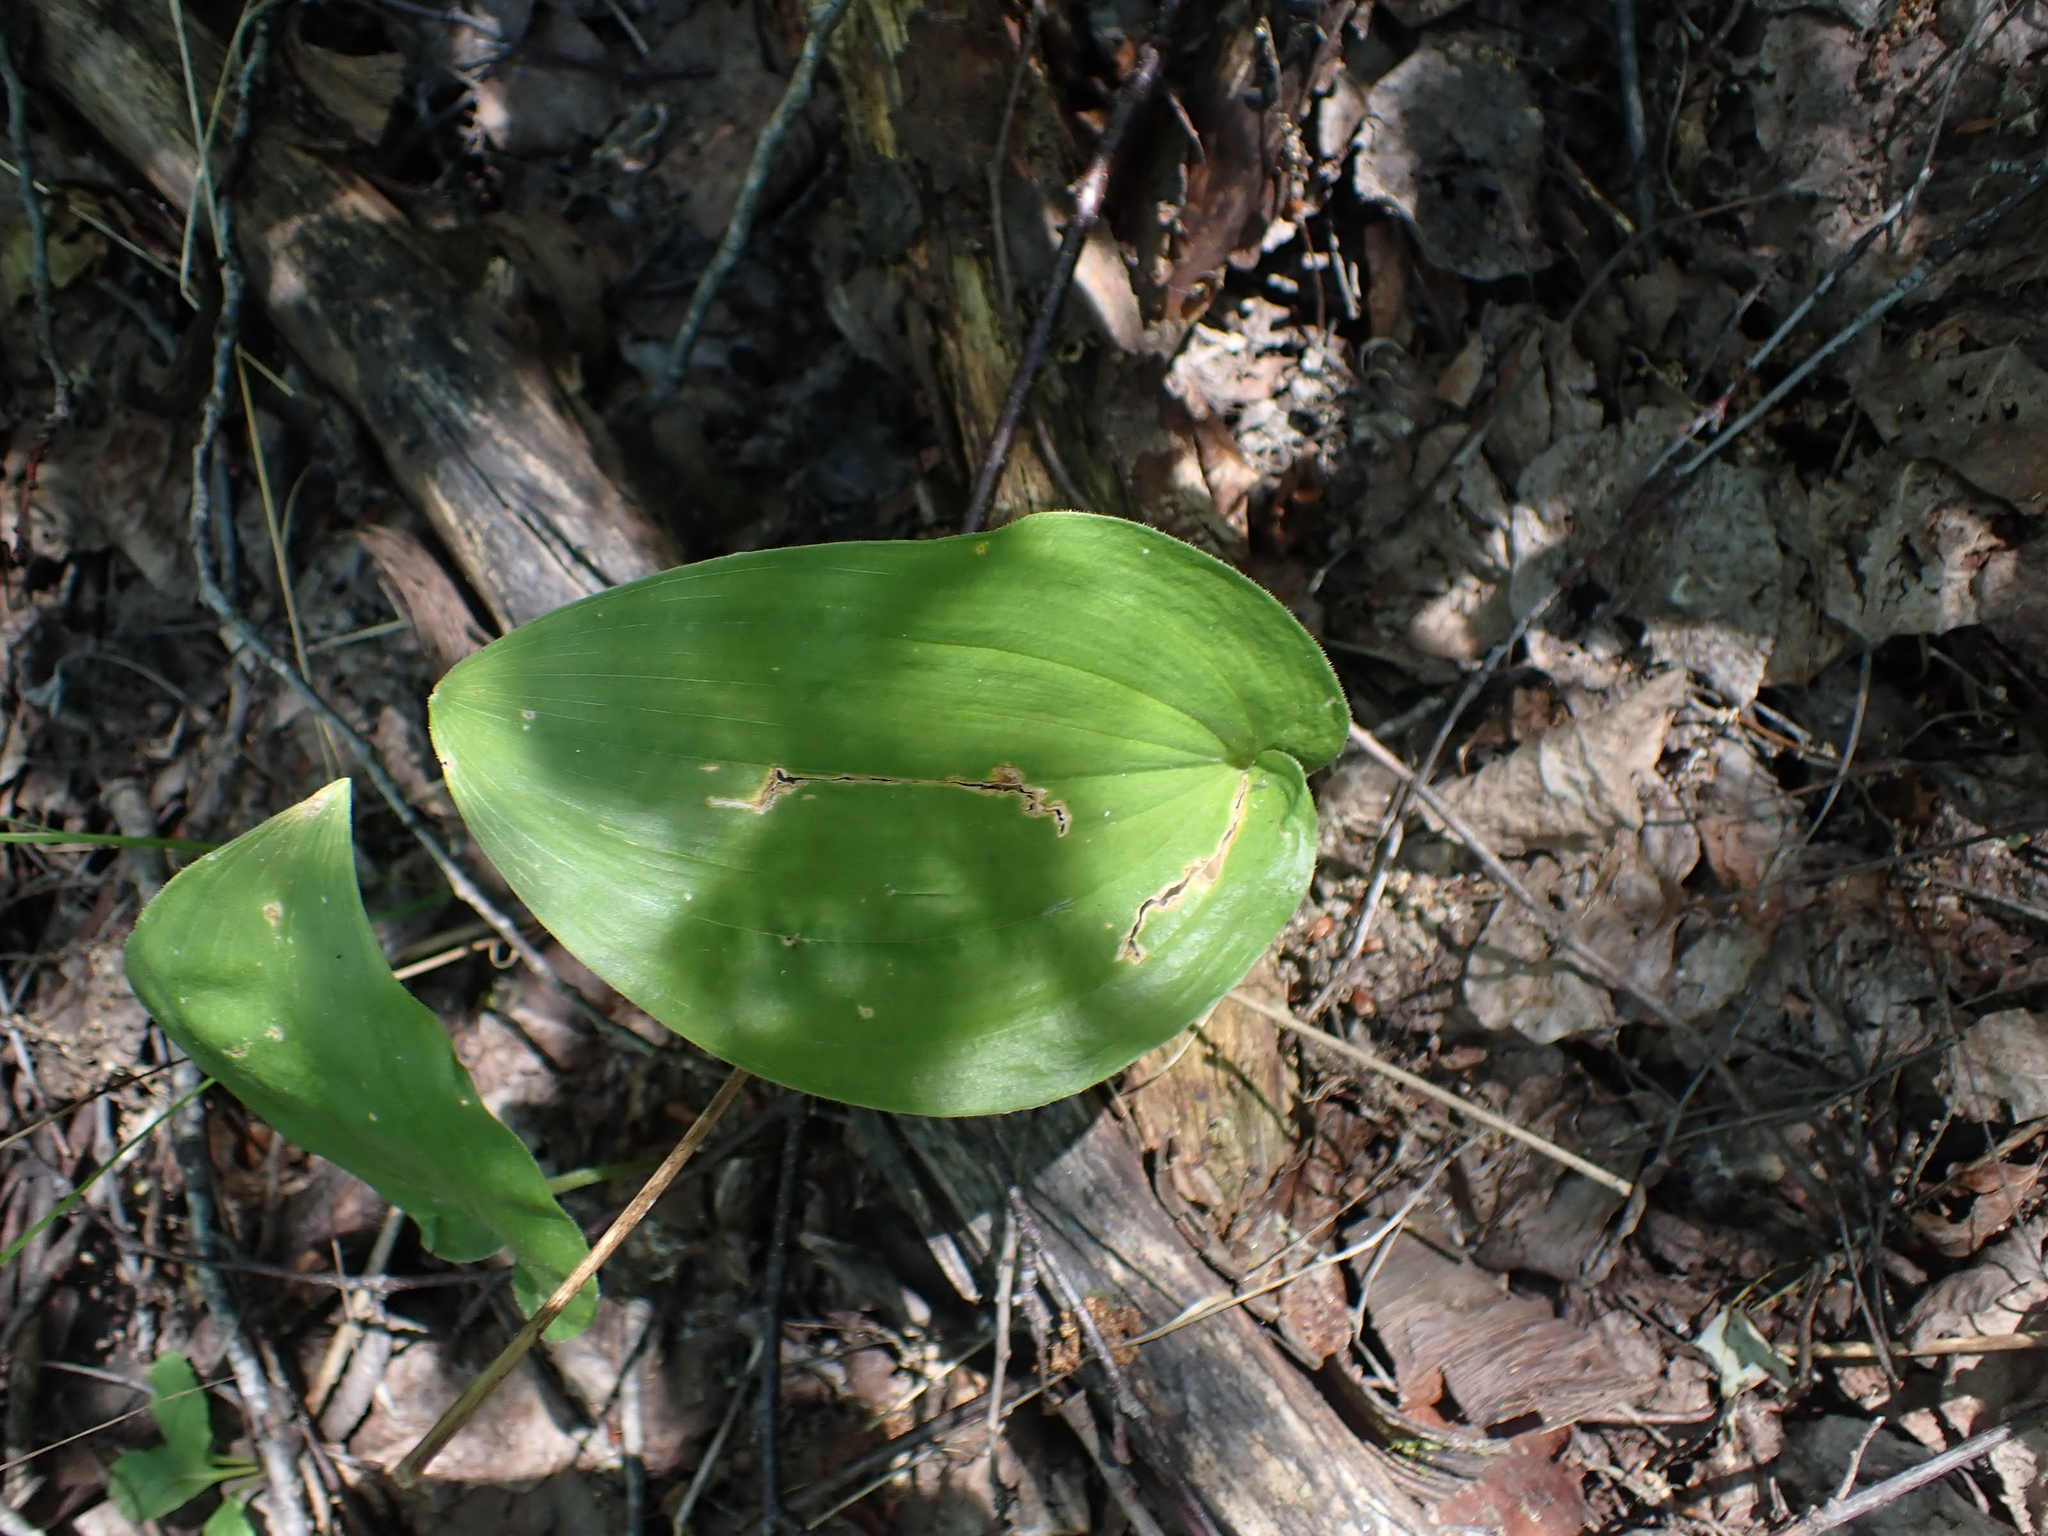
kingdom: Plantae
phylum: Tracheophyta
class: Liliopsida
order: Asparagales
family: Asparagaceae
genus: Maianthemum
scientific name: Maianthemum canadense
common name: False lily-of-the-valley
